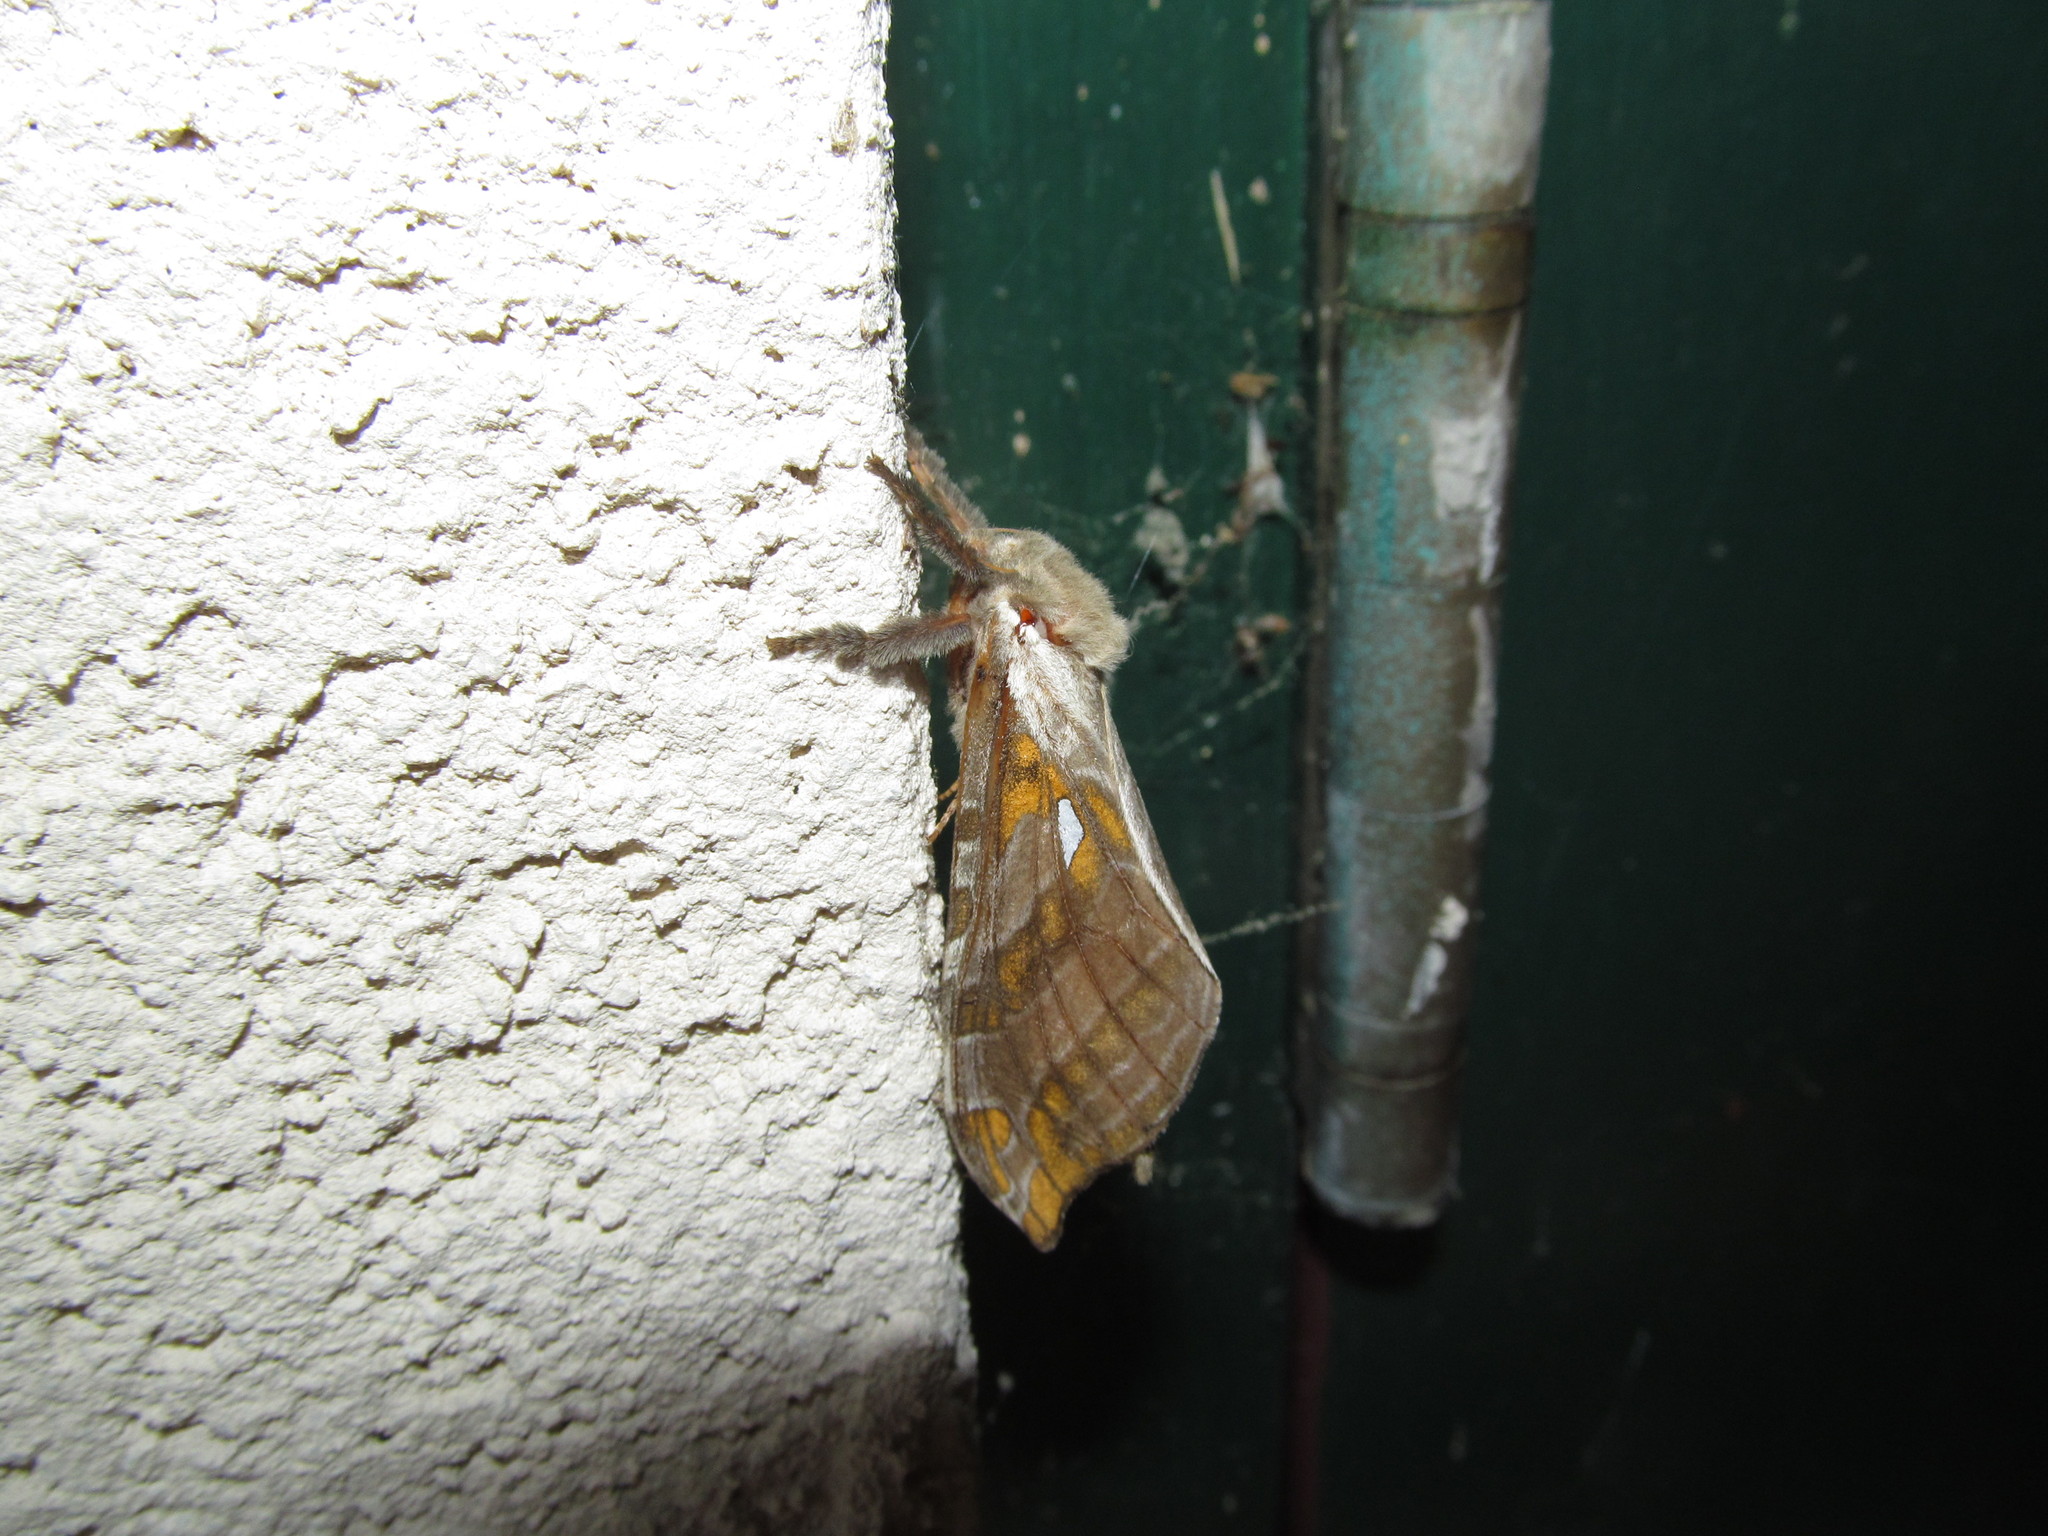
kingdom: Animalia
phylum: Arthropoda
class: Insecta
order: Lepidoptera
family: Hepialidae
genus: Sthenopis
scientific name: Sthenopis argenteomaculatus
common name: Silver-spotted ghost moth
